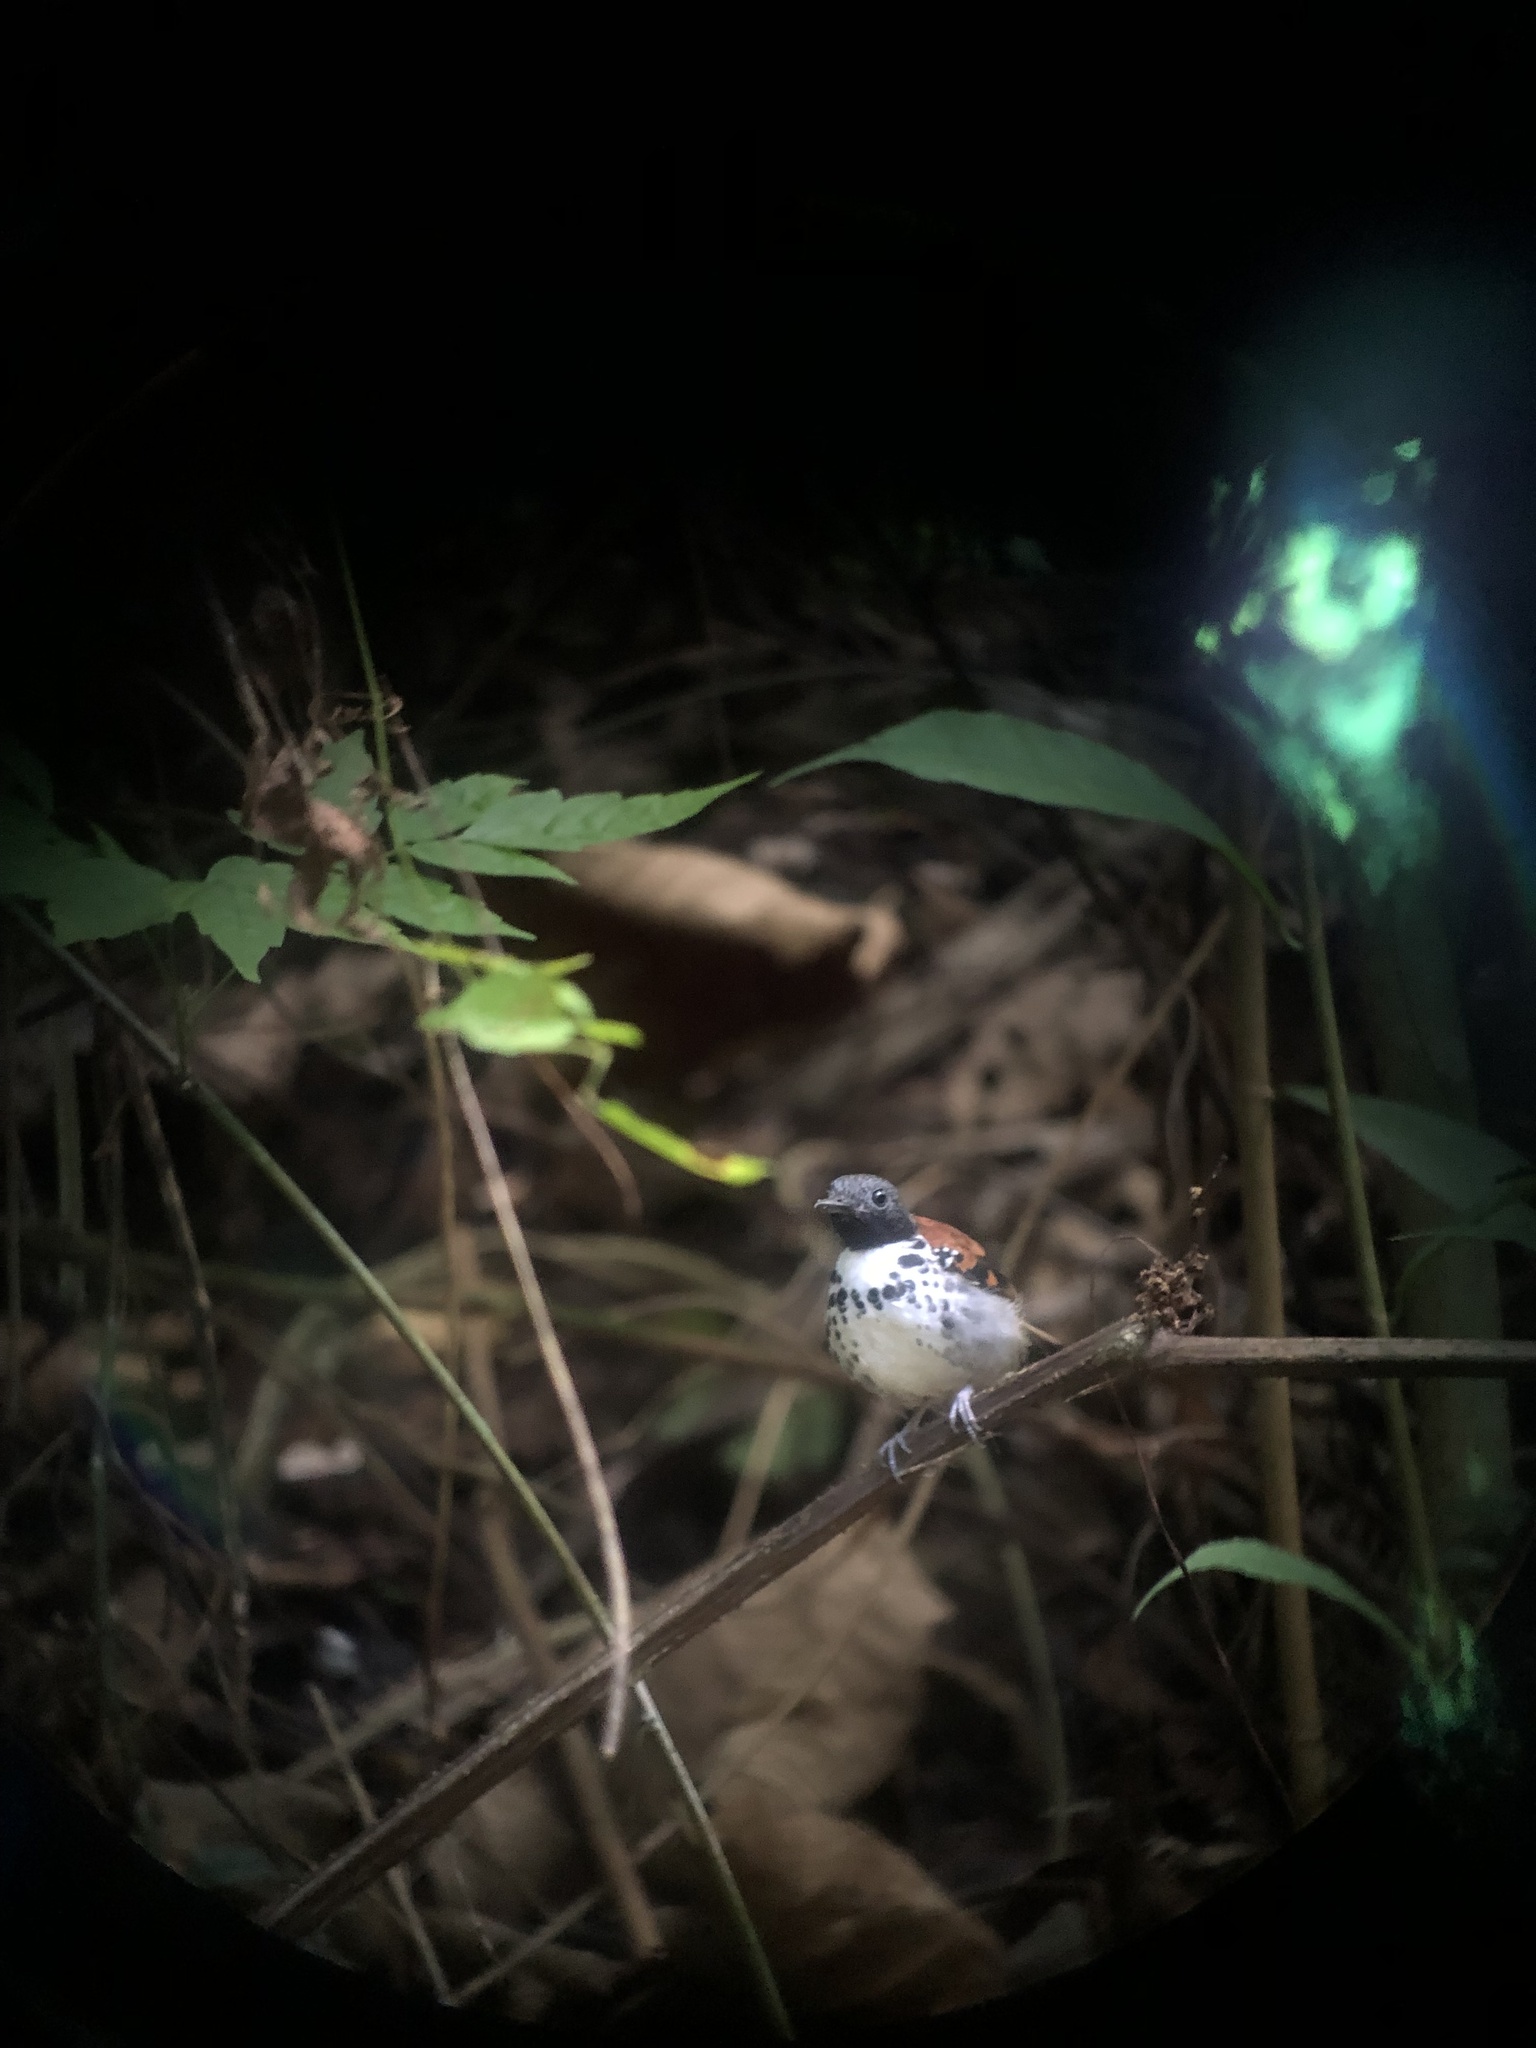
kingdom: Animalia
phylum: Chordata
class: Aves
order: Passeriformes
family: Thamnophilidae
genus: Hylophylax
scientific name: Hylophylax naevioides
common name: Spotted antbird
